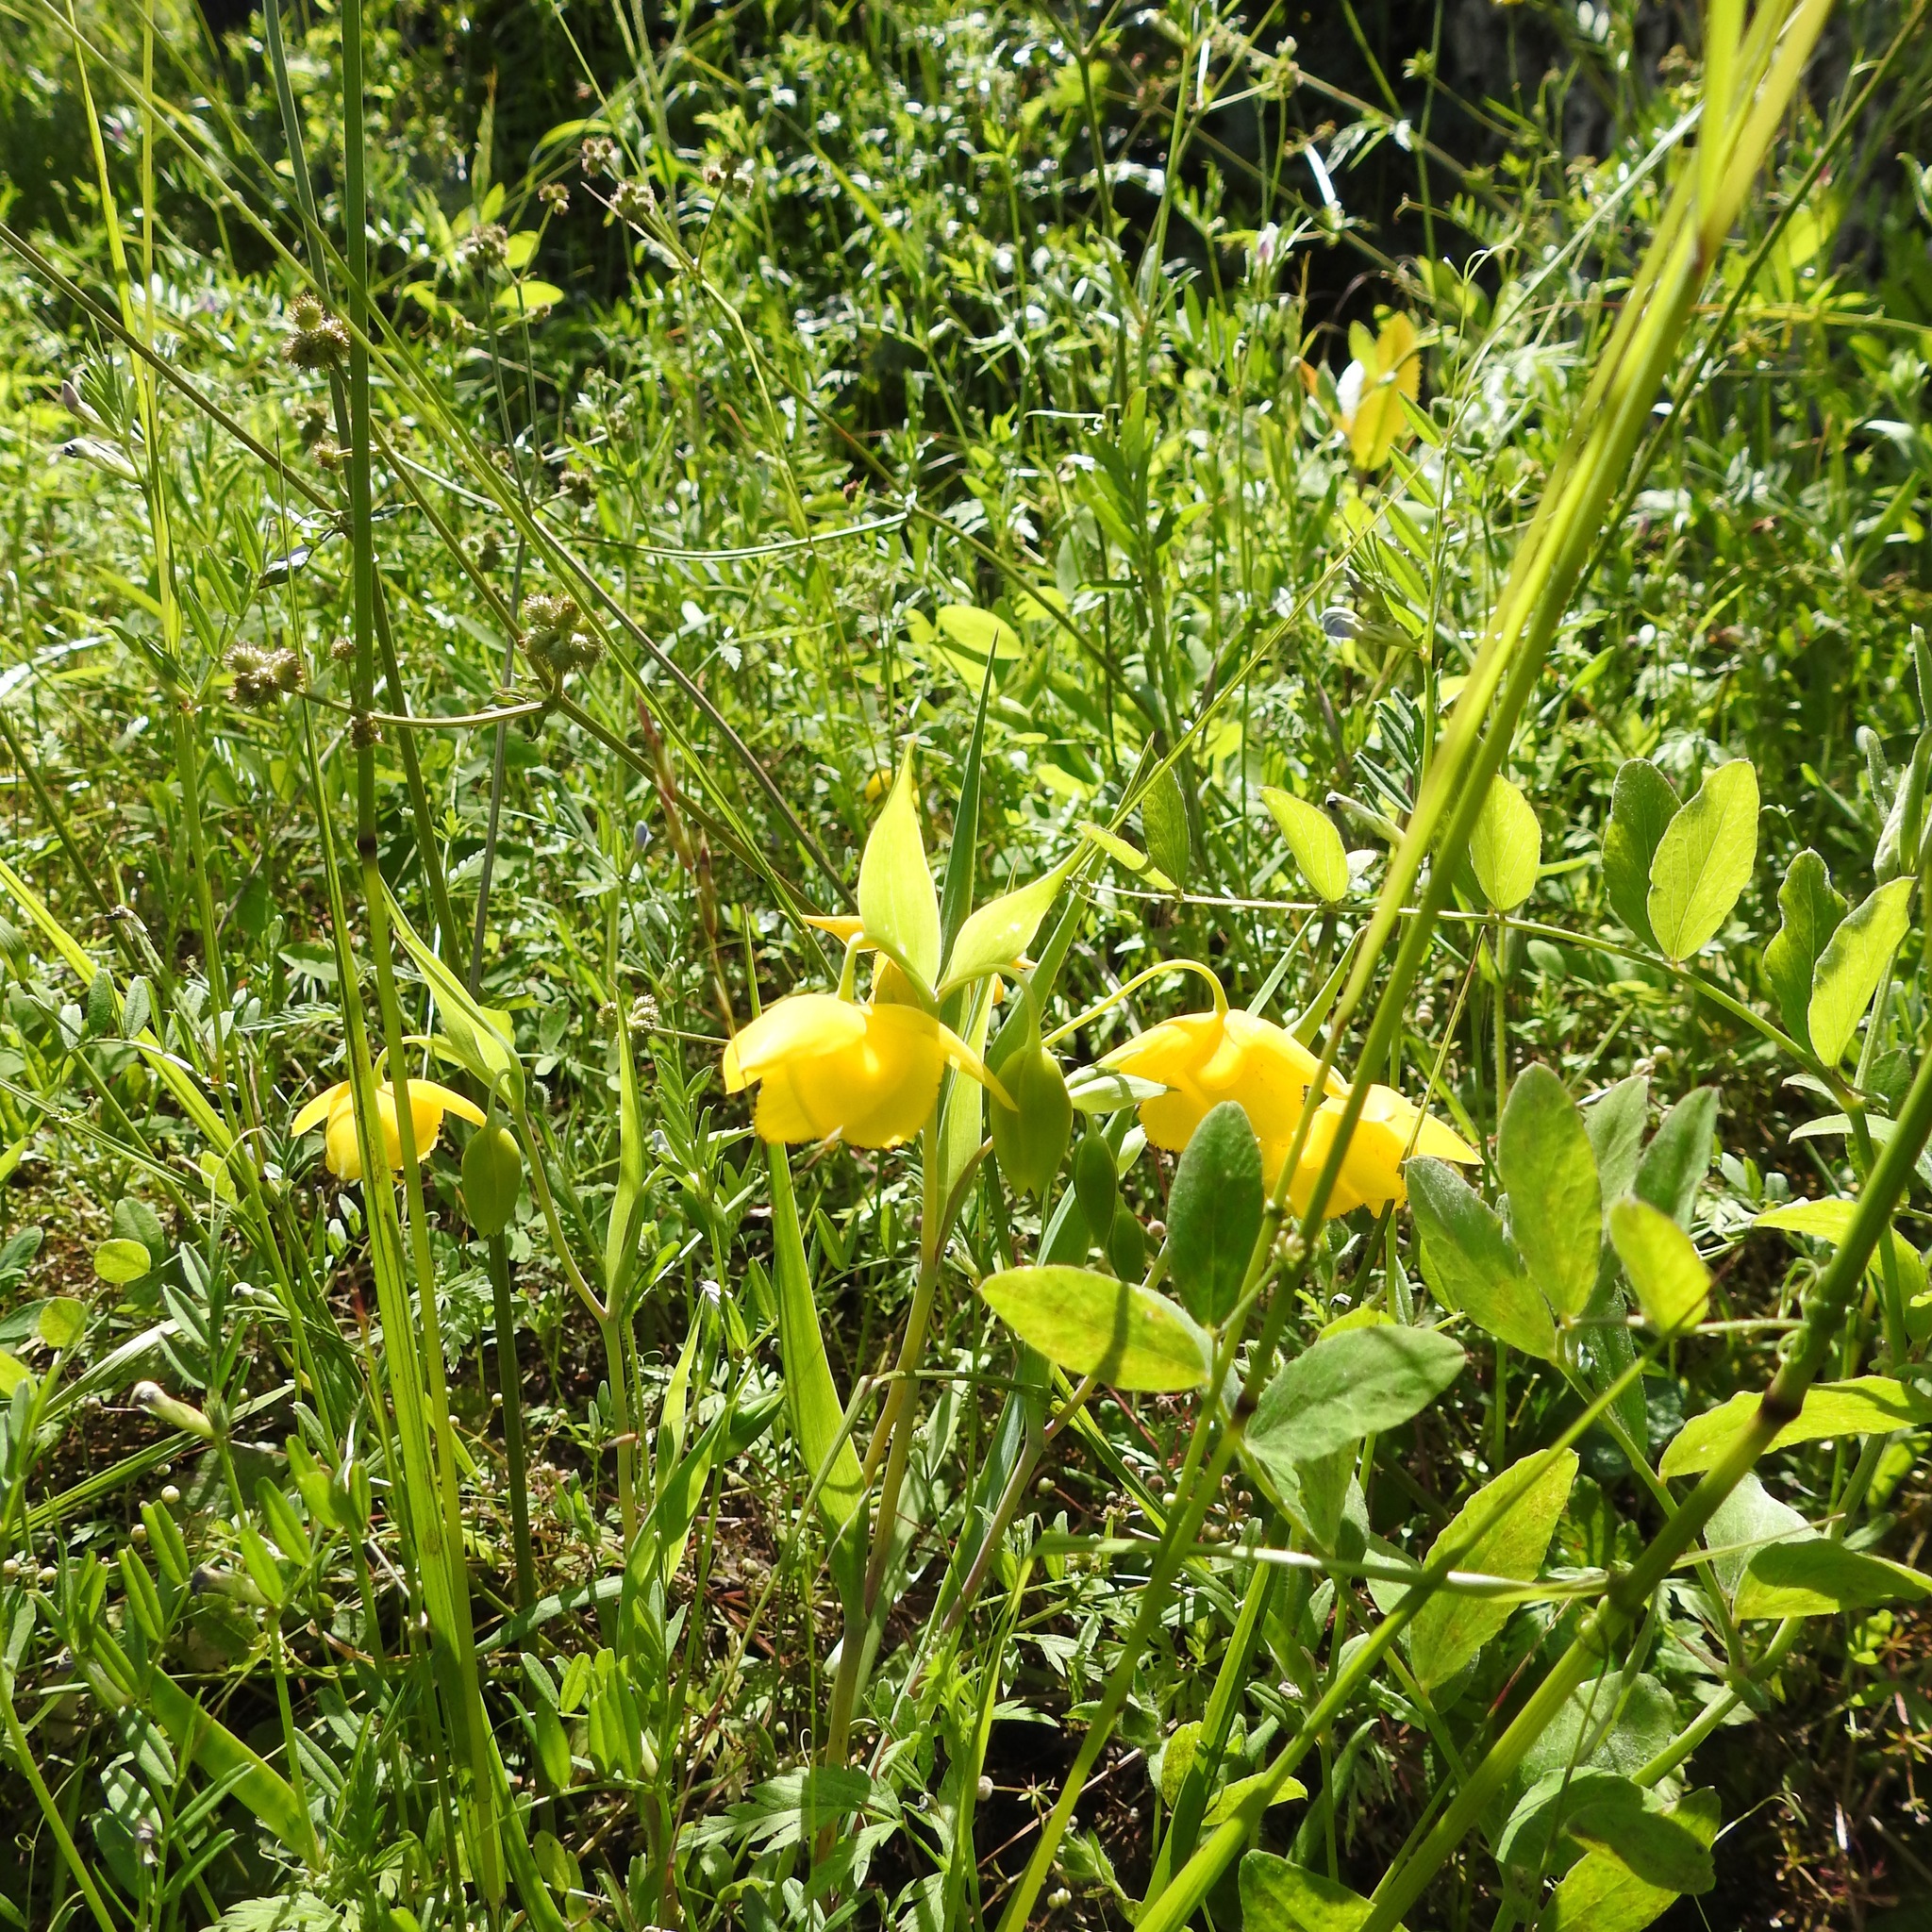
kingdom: Plantae
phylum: Tracheophyta
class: Liliopsida
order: Liliales
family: Liliaceae
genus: Calochortus
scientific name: Calochortus amabilis
